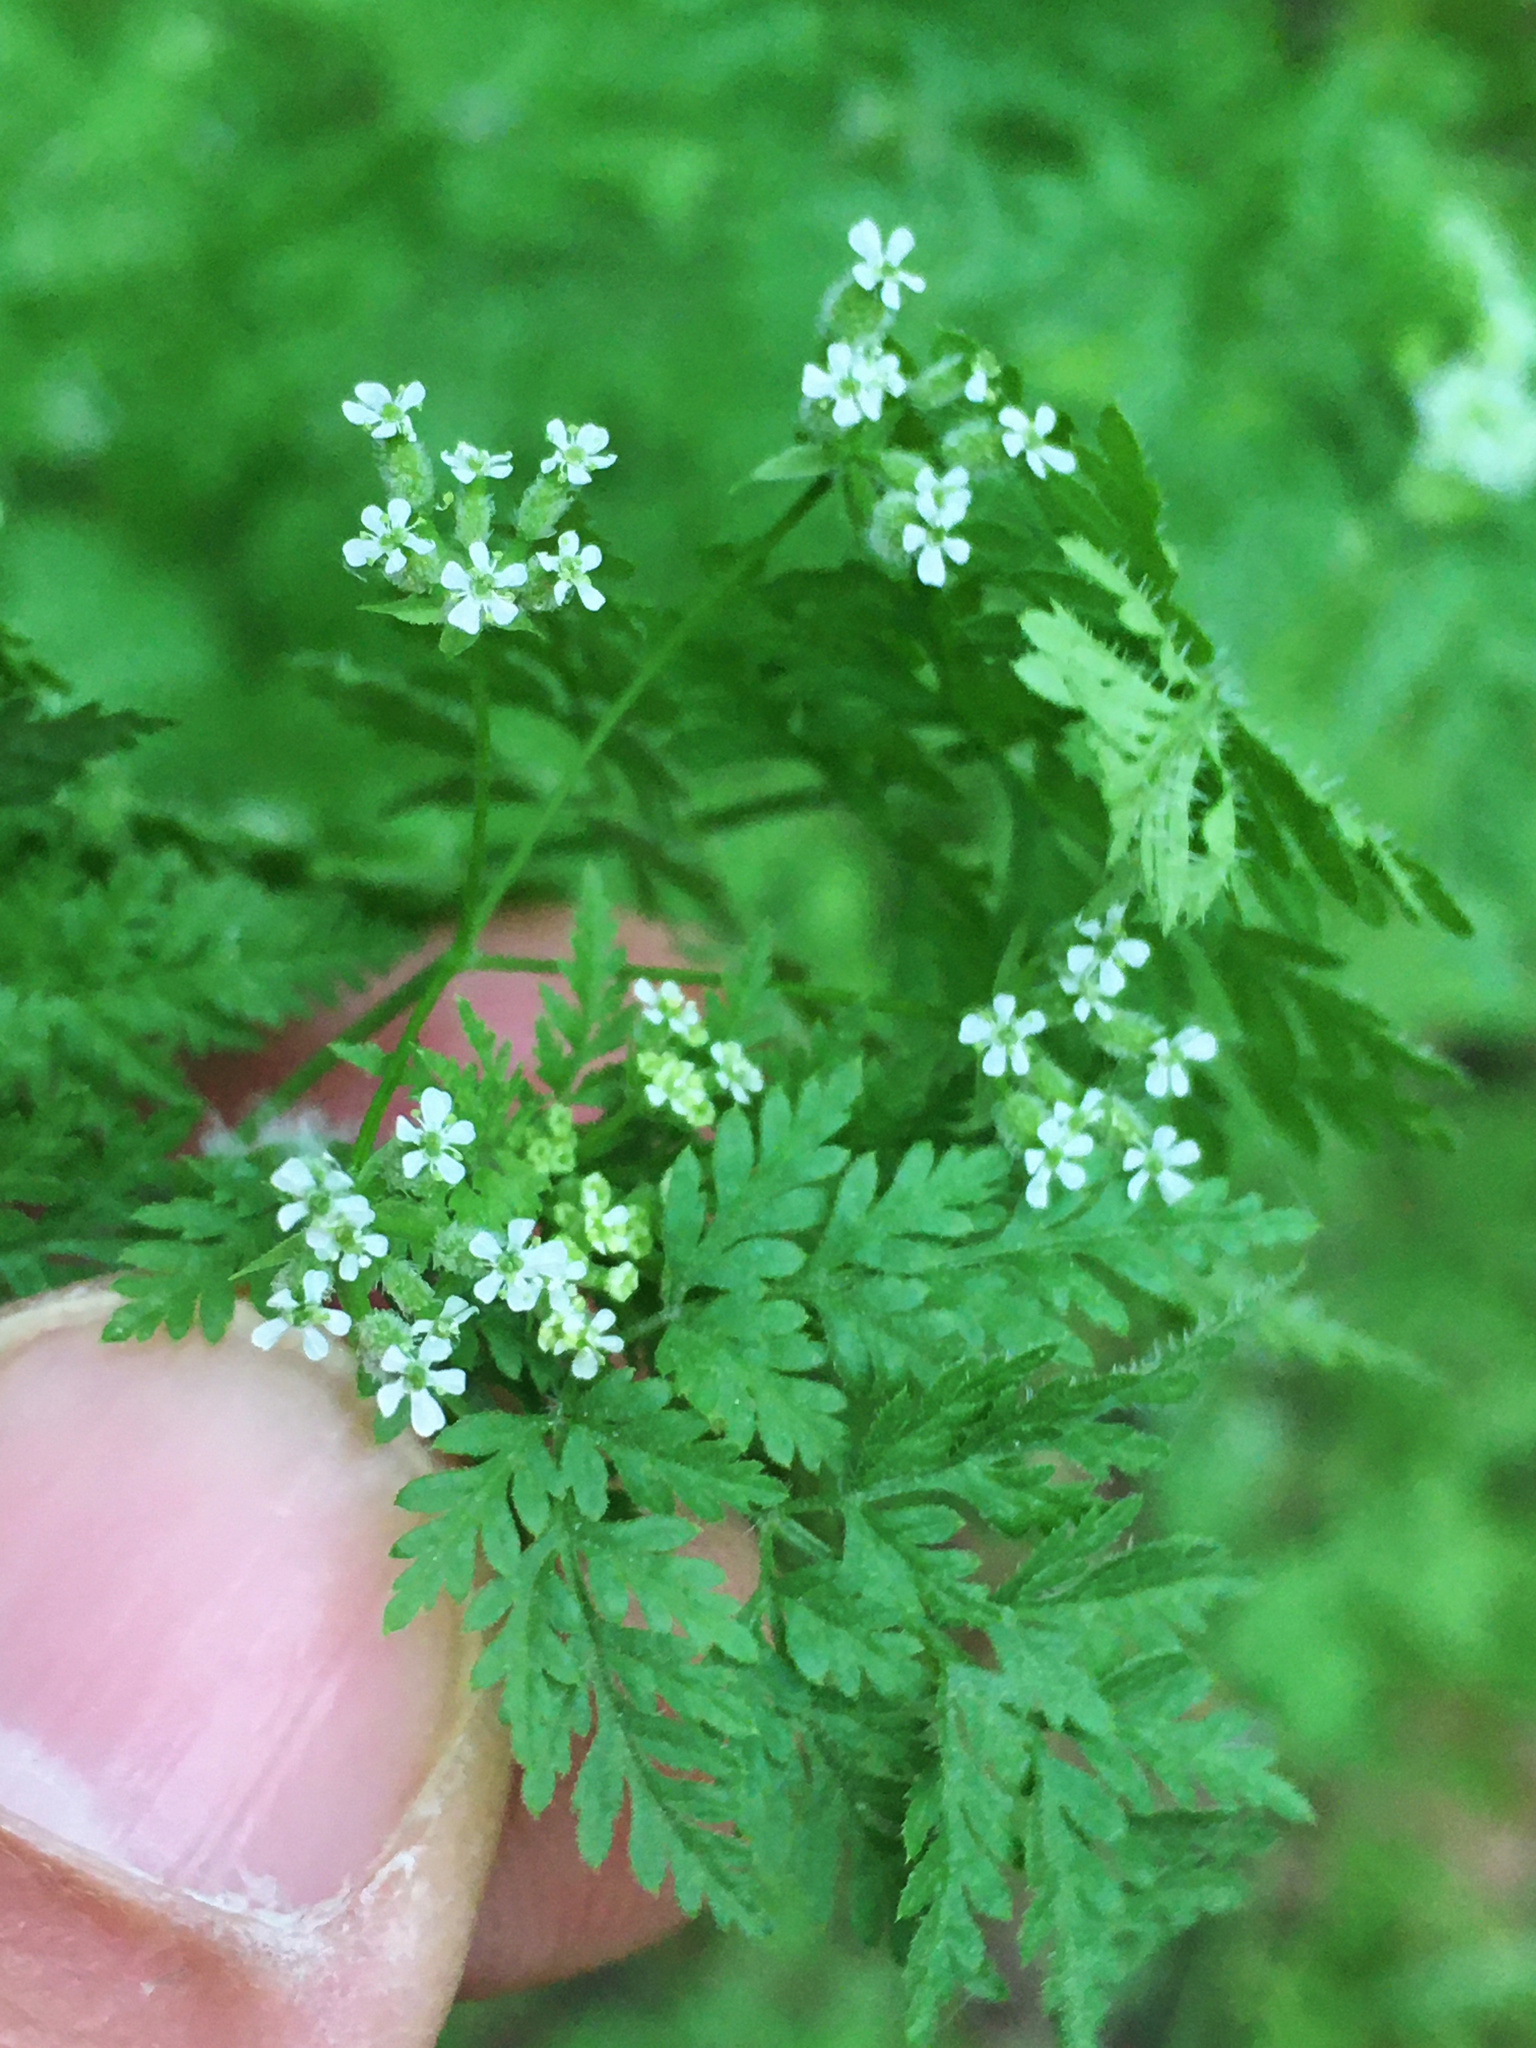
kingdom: Plantae
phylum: Tracheophyta
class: Magnoliopsida
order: Apiales
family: Apiaceae
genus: Anthriscus
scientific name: Anthriscus caucalis
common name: Bur chervil
